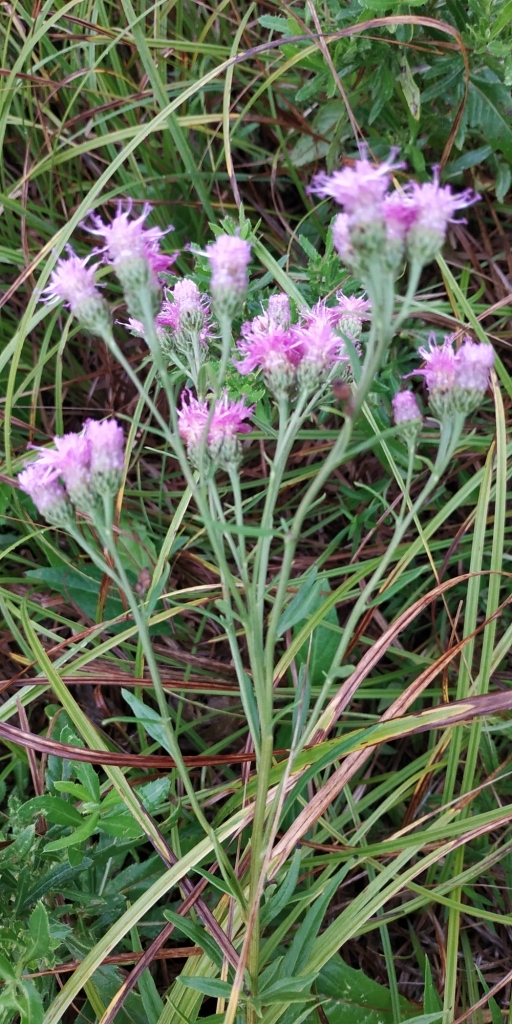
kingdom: Plantae
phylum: Tracheophyta
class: Magnoliopsida
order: Asterales
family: Asteraceae
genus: Saussurea
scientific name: Saussurea amara
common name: Alberta sawwort
